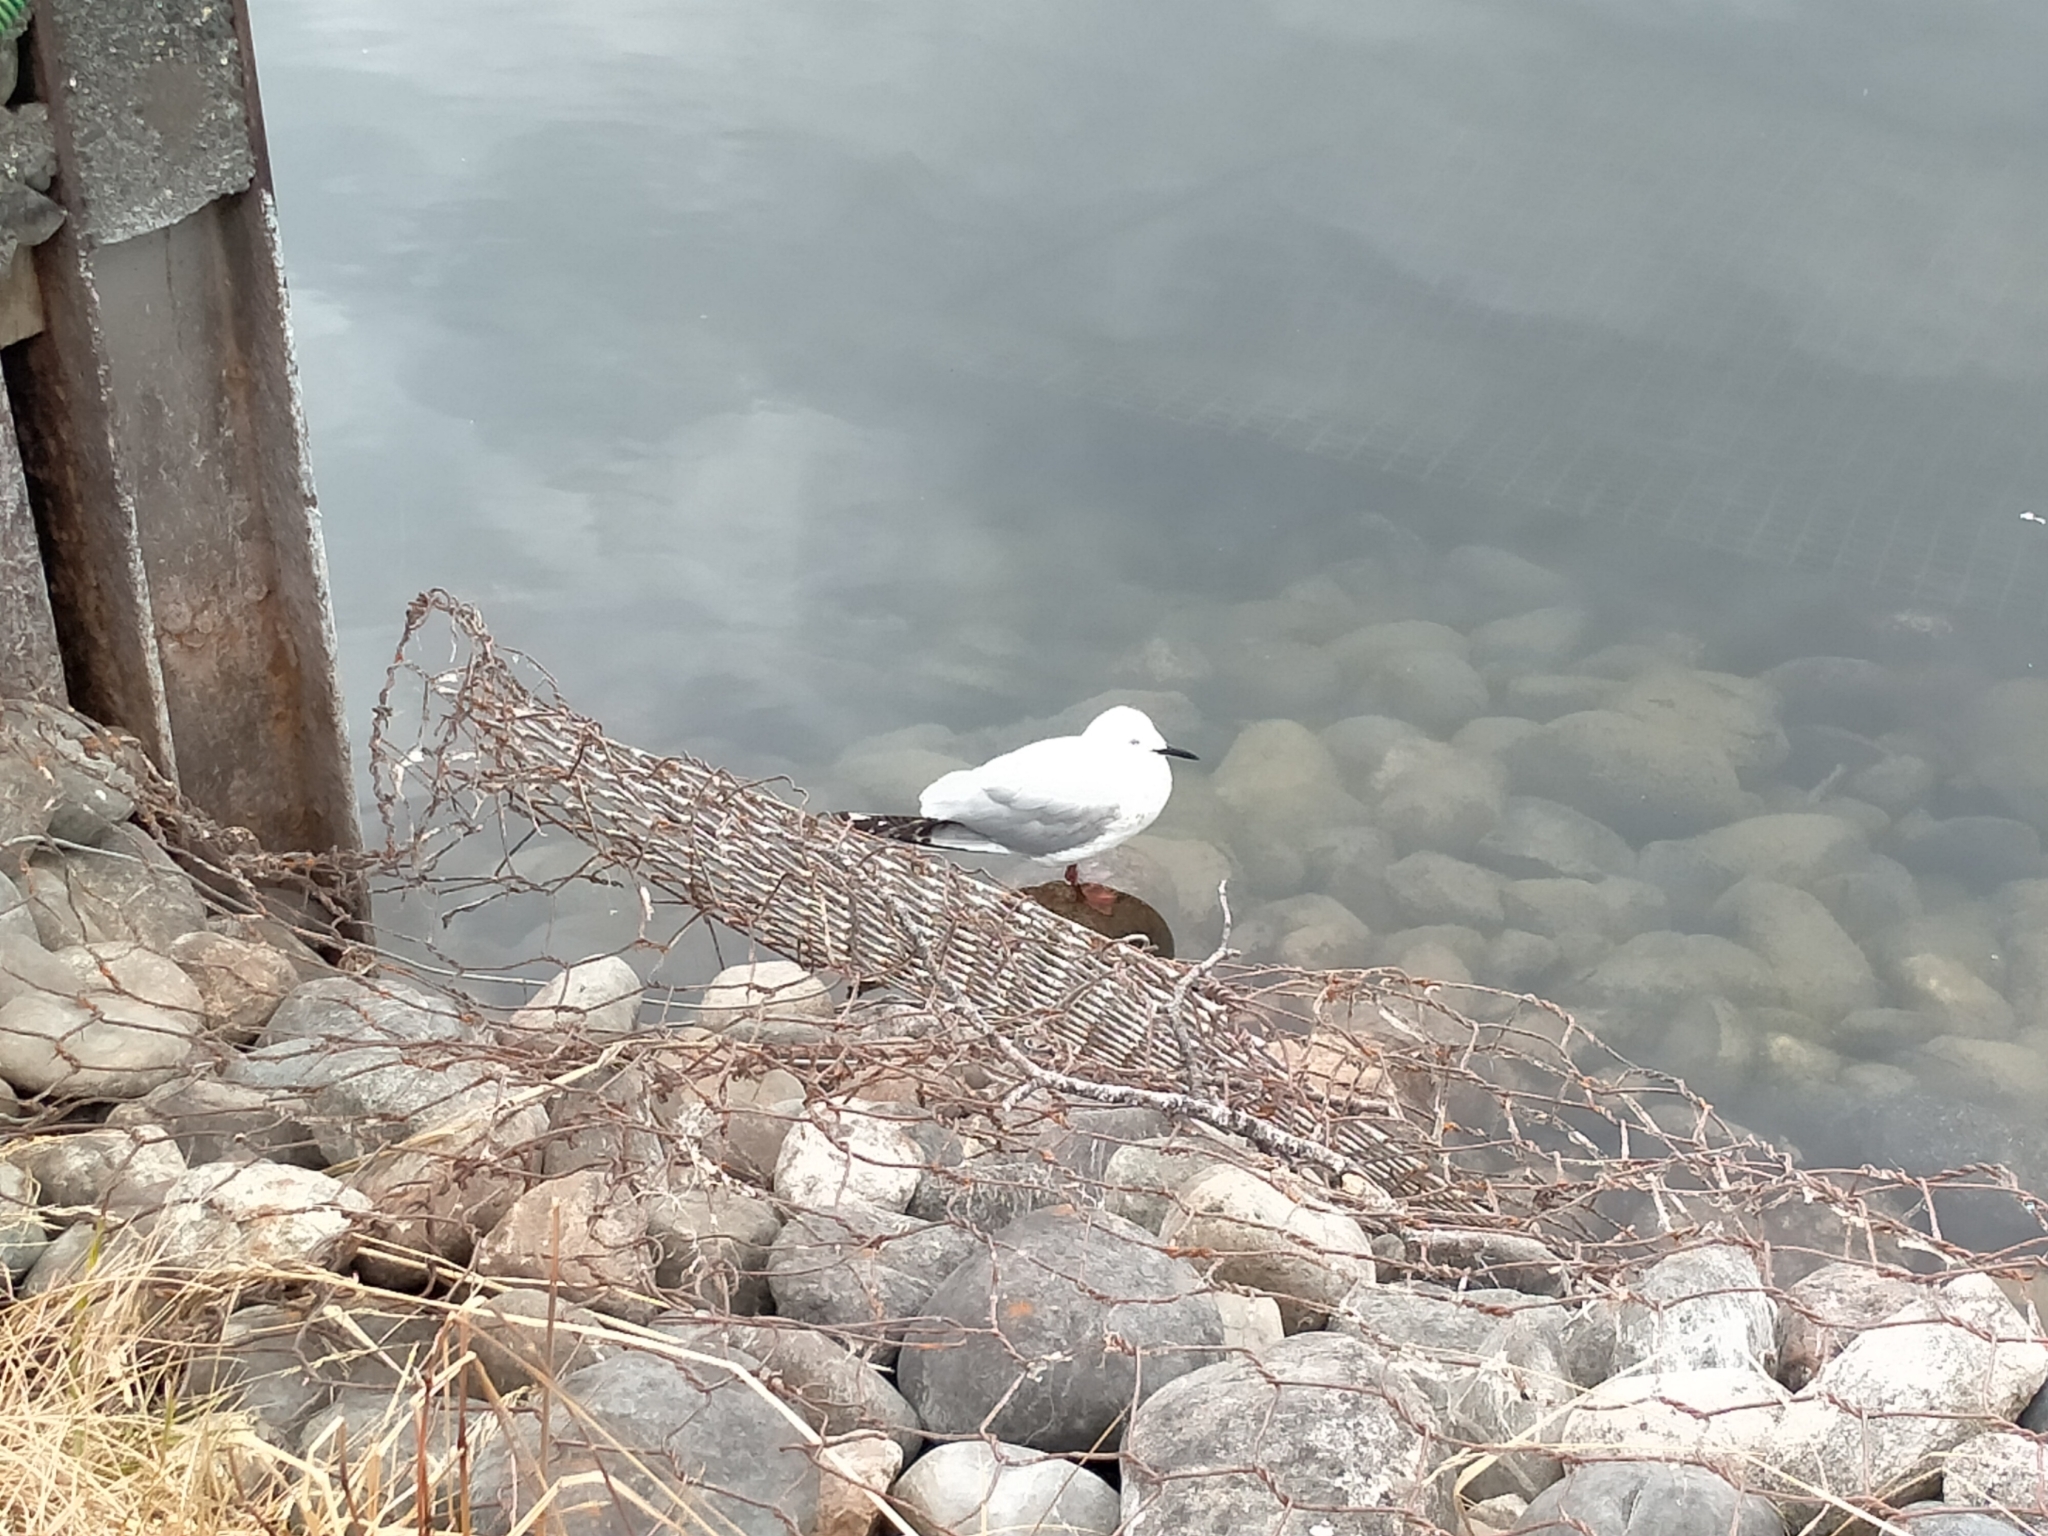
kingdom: Animalia
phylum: Chordata
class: Aves
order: Charadriiformes
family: Laridae
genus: Chroicocephalus
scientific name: Chroicocephalus bulleri
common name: Black-billed gull
